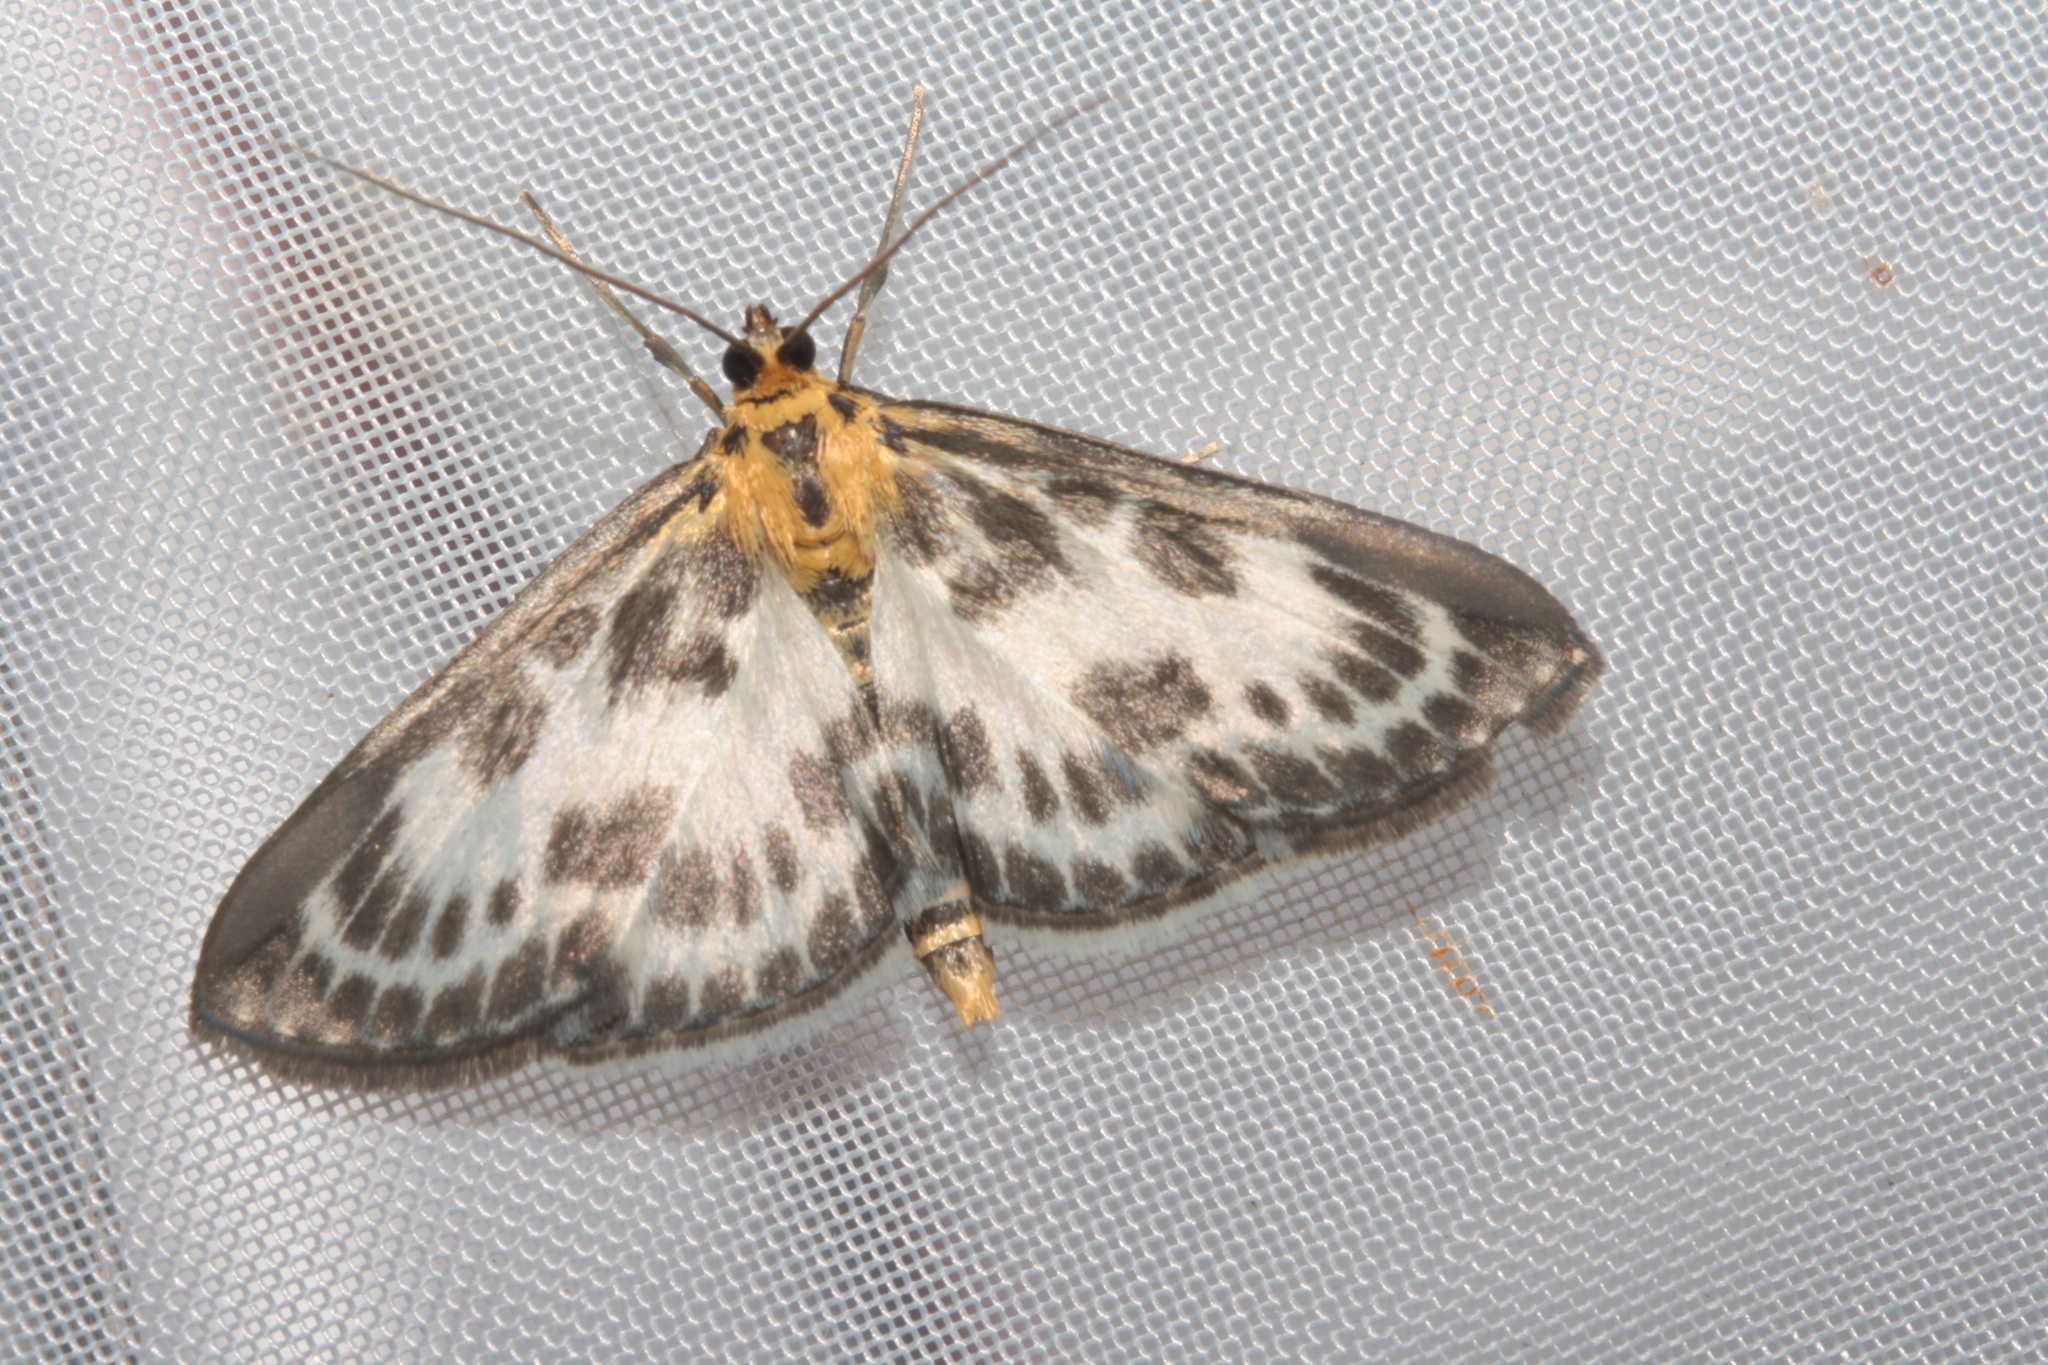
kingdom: Animalia
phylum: Arthropoda
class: Insecta
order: Lepidoptera
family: Crambidae
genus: Anania
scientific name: Anania hortulata
